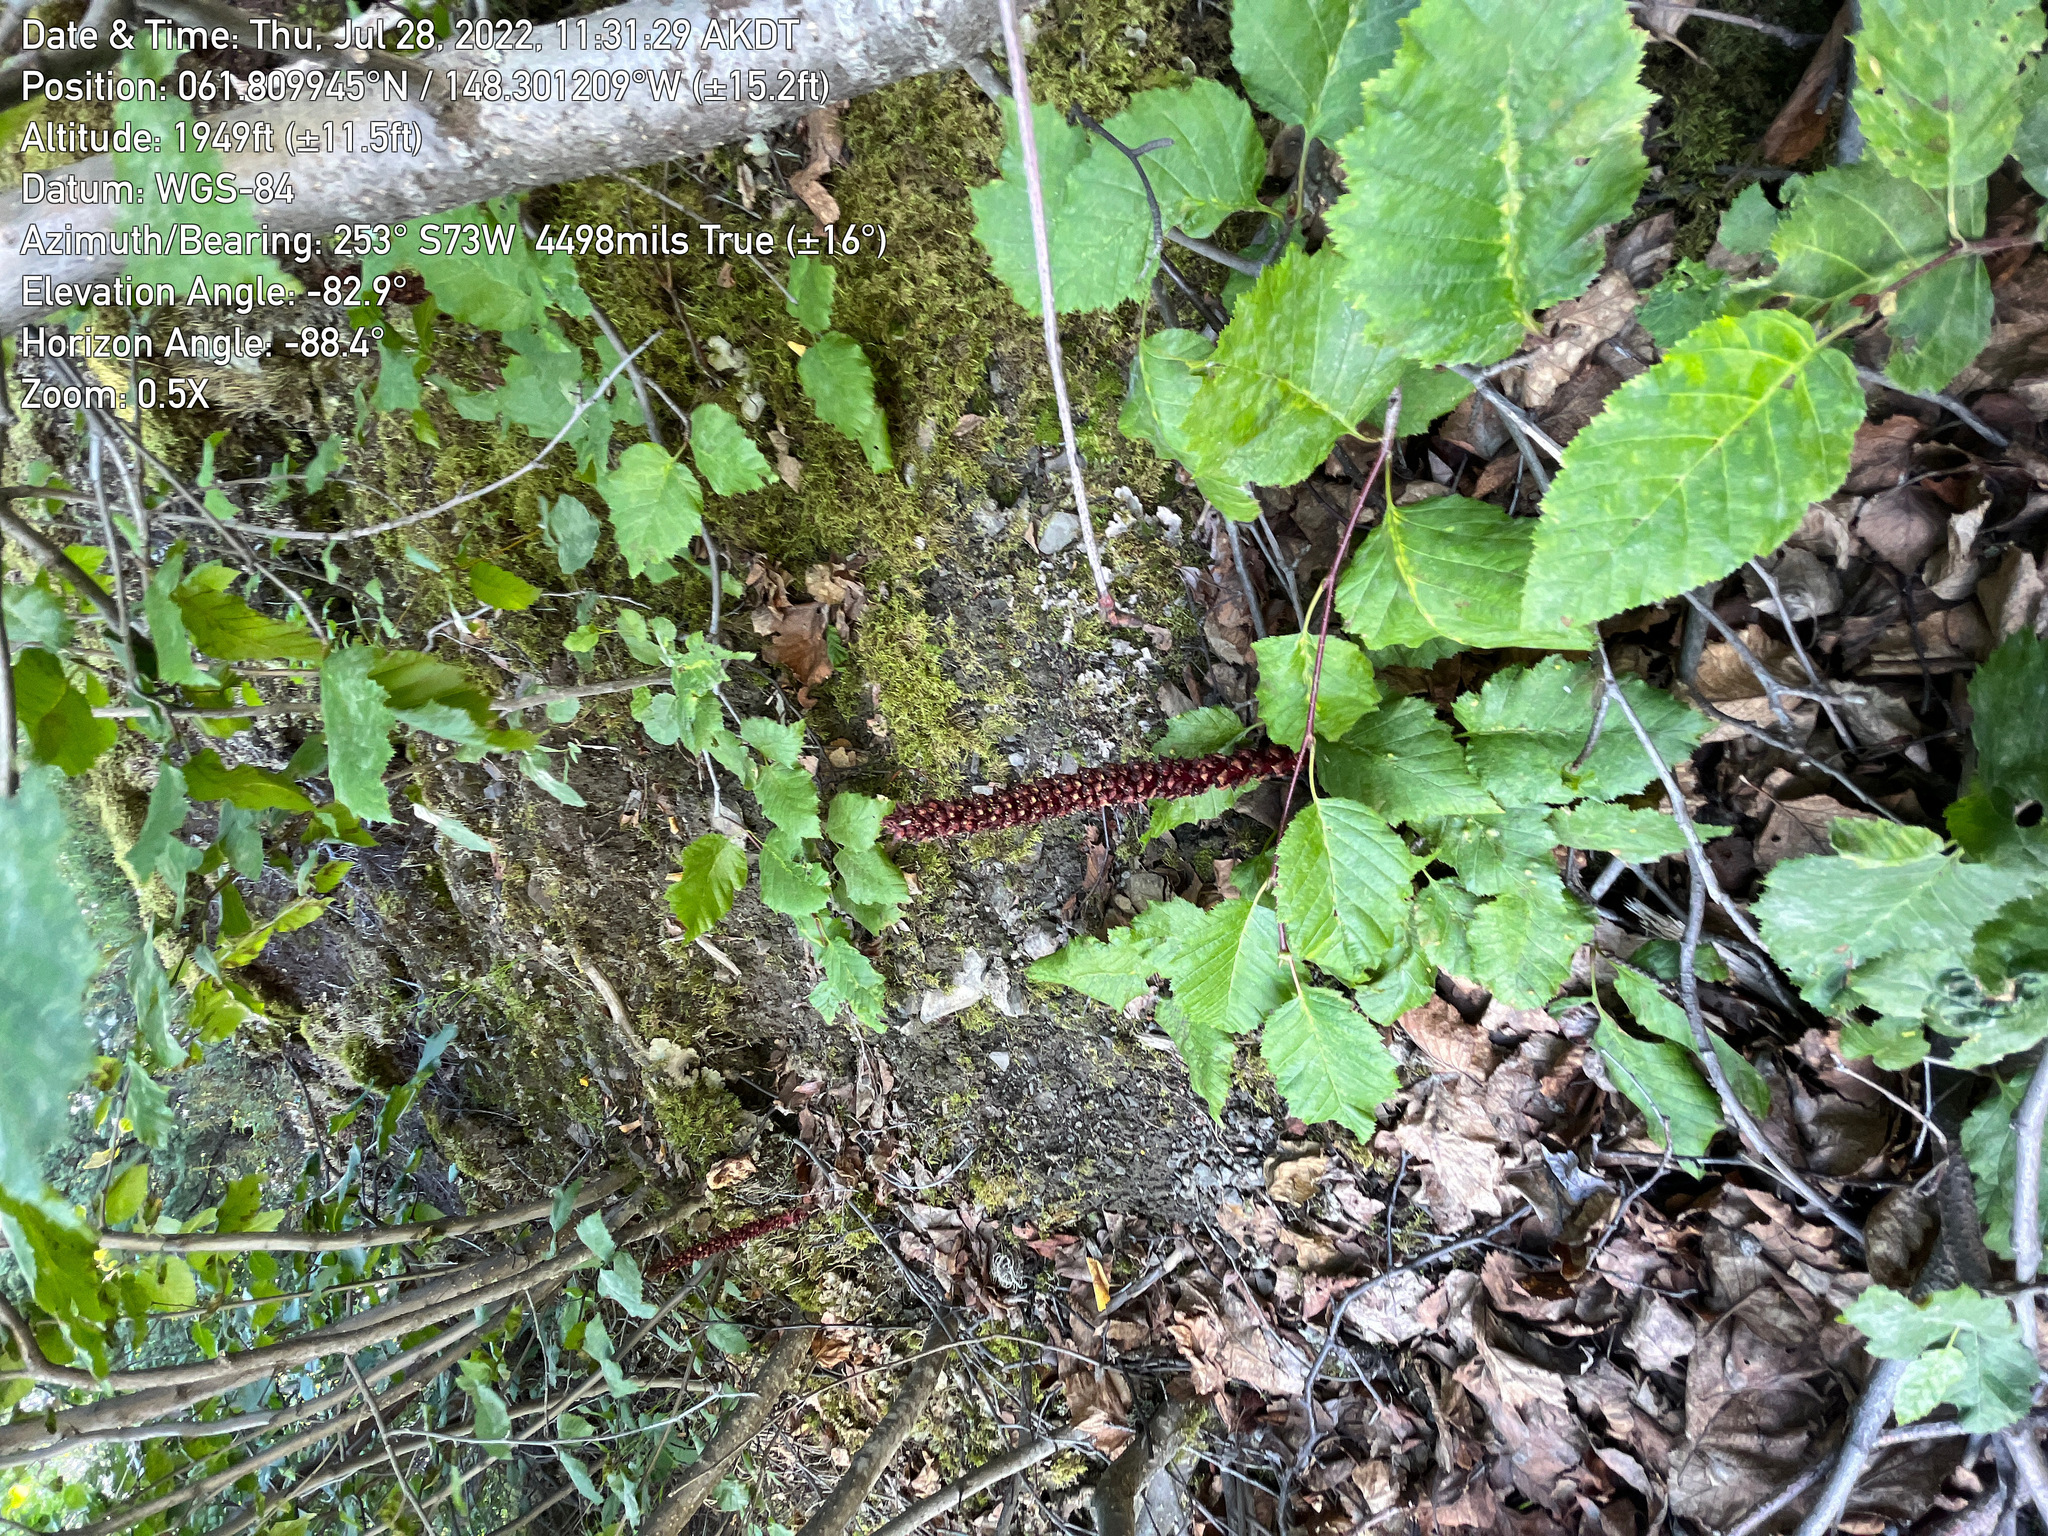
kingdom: Plantae
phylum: Tracheophyta
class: Magnoliopsida
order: Lamiales
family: Orobanchaceae
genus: Boschniakia
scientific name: Boschniakia rossica
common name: Poque
